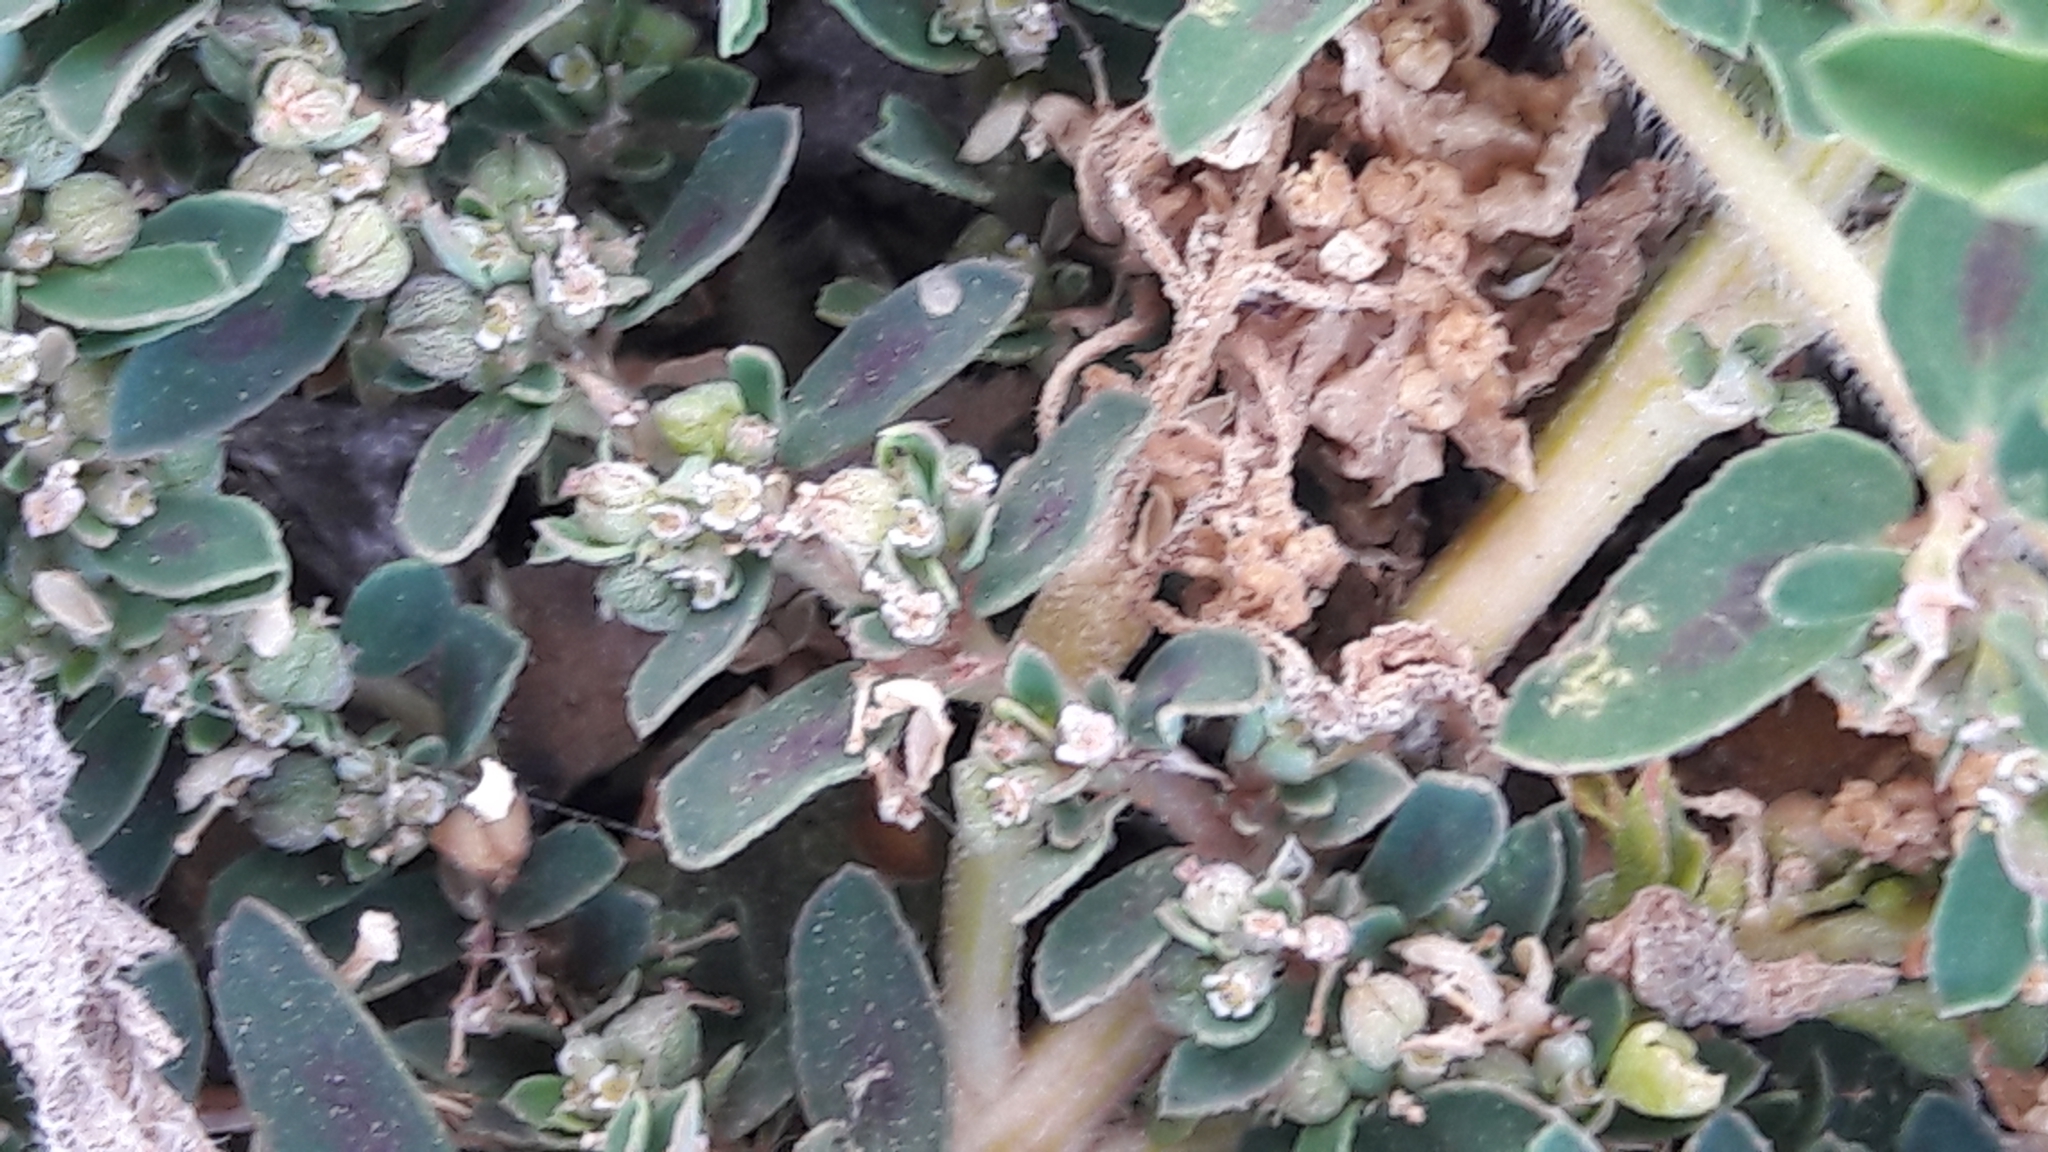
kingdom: Plantae
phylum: Tracheophyta
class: Magnoliopsida
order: Malpighiales
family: Euphorbiaceae
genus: Euphorbia
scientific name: Euphorbia maculata
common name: Spotted spurge
